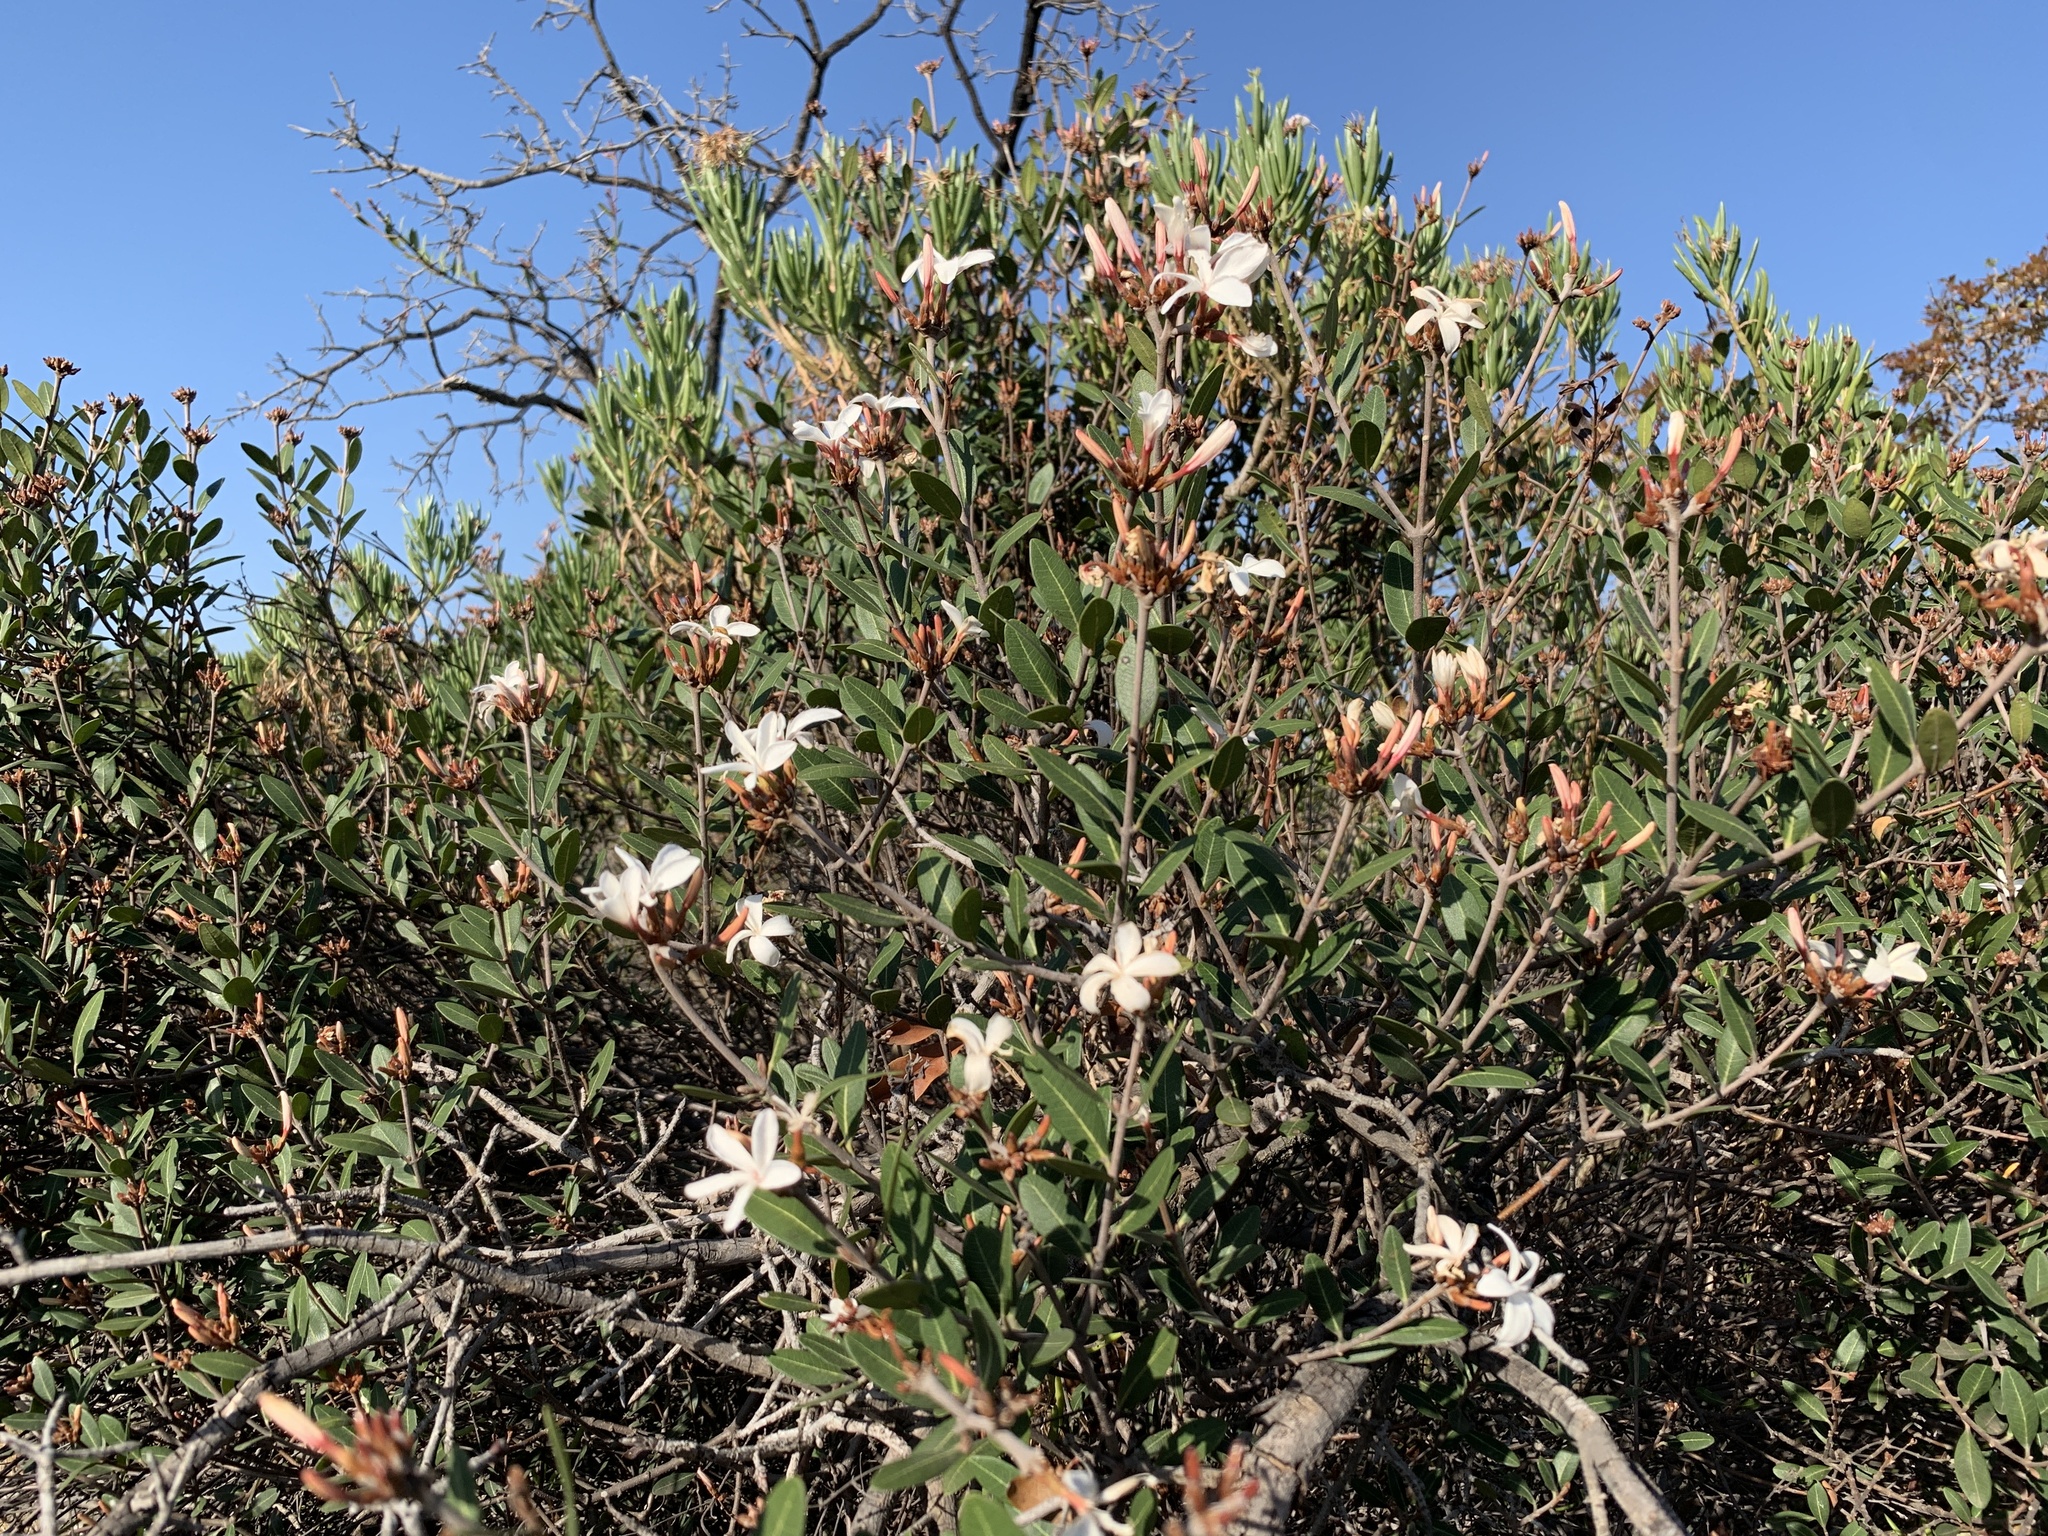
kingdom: Plantae
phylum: Tracheophyta
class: Magnoliopsida
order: Gentianales
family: Apocynaceae
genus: Ancylobothrys
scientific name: Ancylobothrys capensis
